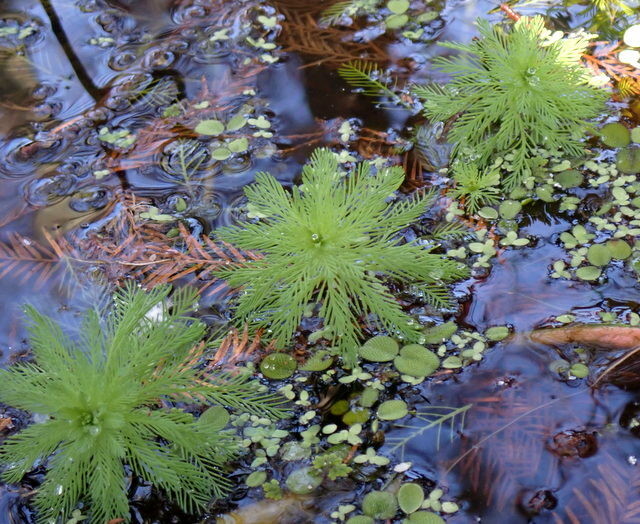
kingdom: Plantae
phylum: Tracheophyta
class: Magnoliopsida
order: Saxifragales
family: Haloragaceae
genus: Myriophyllum
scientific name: Myriophyllum aquaticum
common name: Parrot's feather
